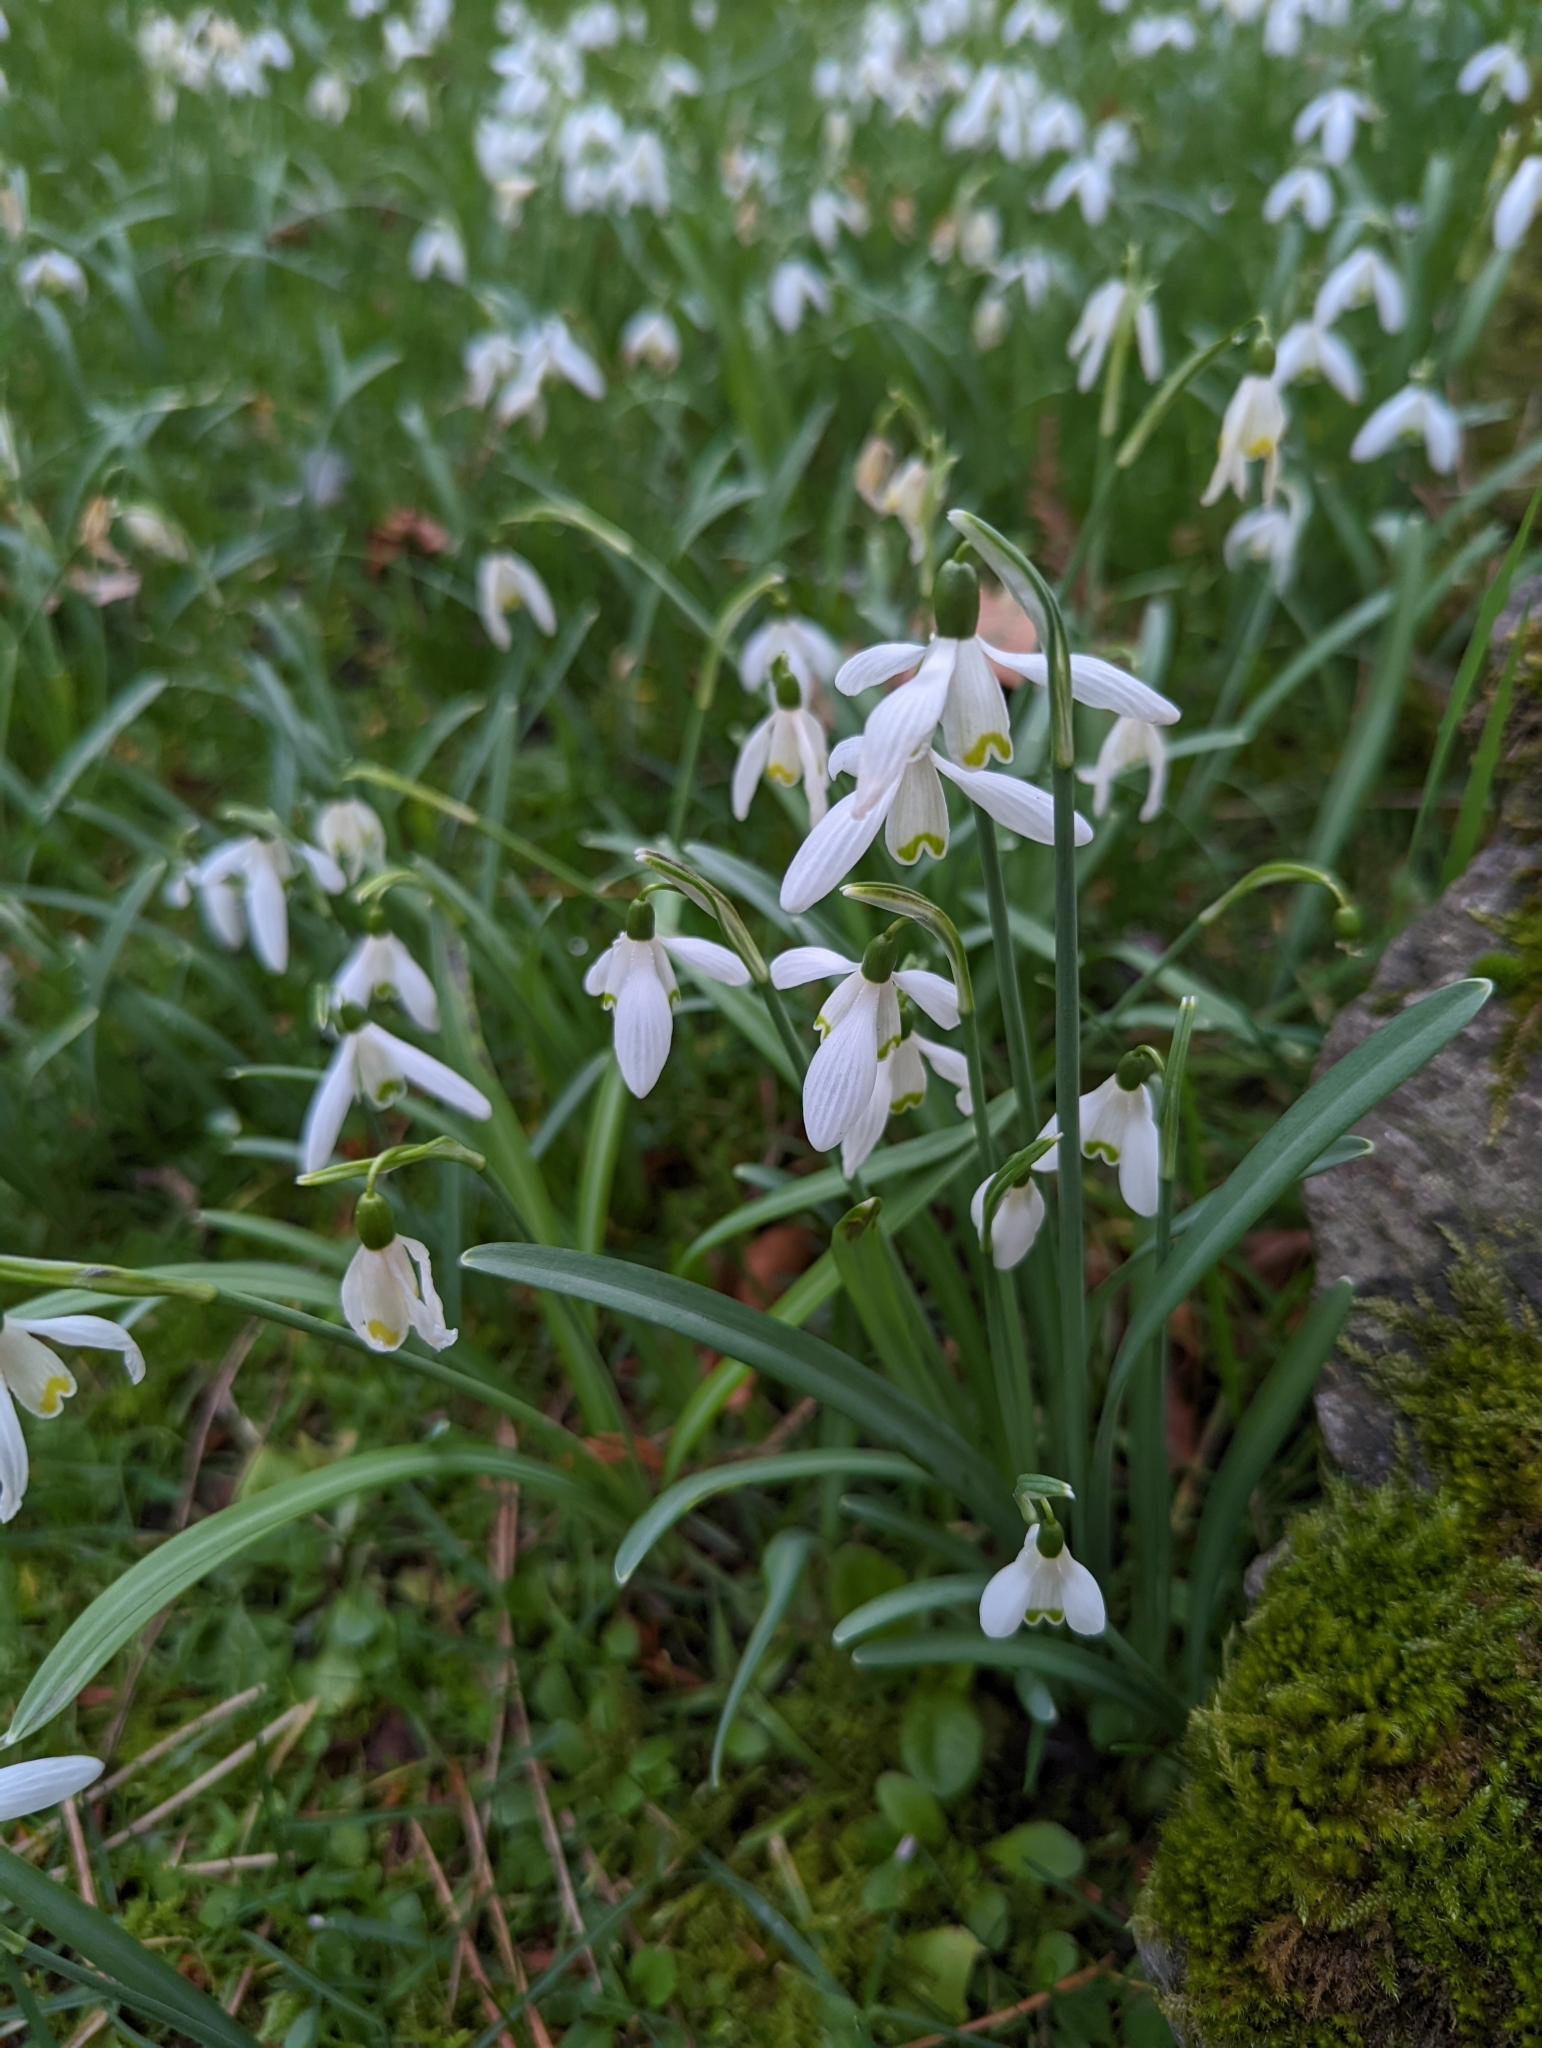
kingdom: Plantae
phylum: Tracheophyta
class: Liliopsida
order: Asparagales
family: Amaryllidaceae
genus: Galanthus
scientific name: Galanthus nivalis
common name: Snowdrop
